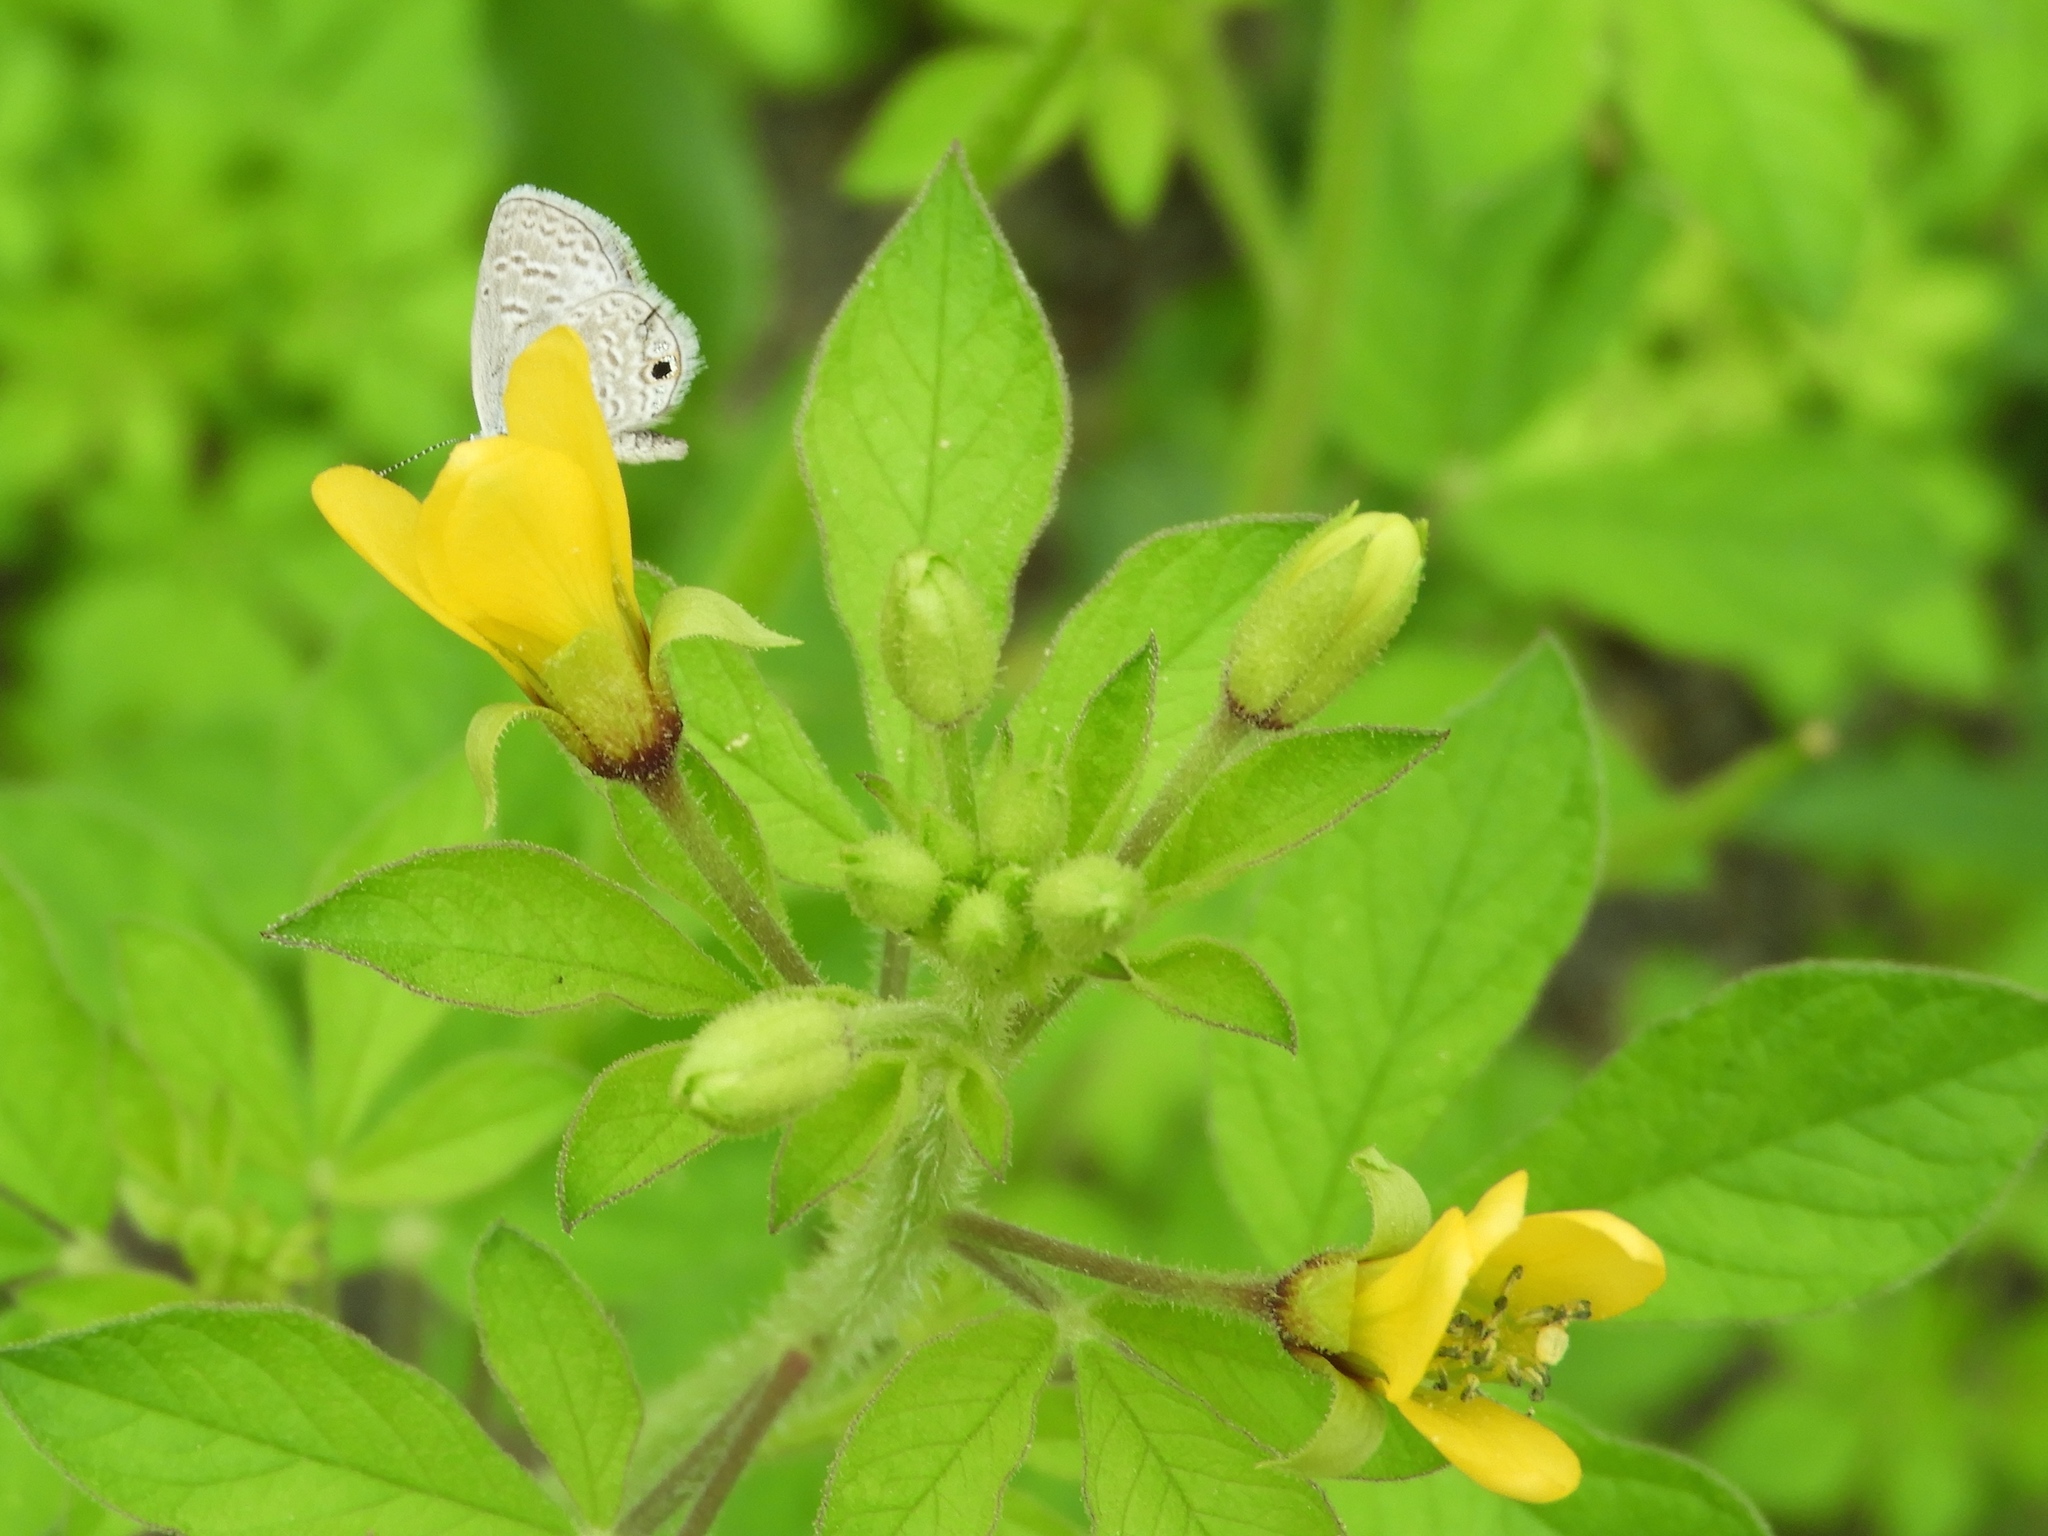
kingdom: Plantae
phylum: Tracheophyta
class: Magnoliopsida
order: Brassicales
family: Cleomaceae
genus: Arivela
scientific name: Arivela viscosa
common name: Asian spiderflower
